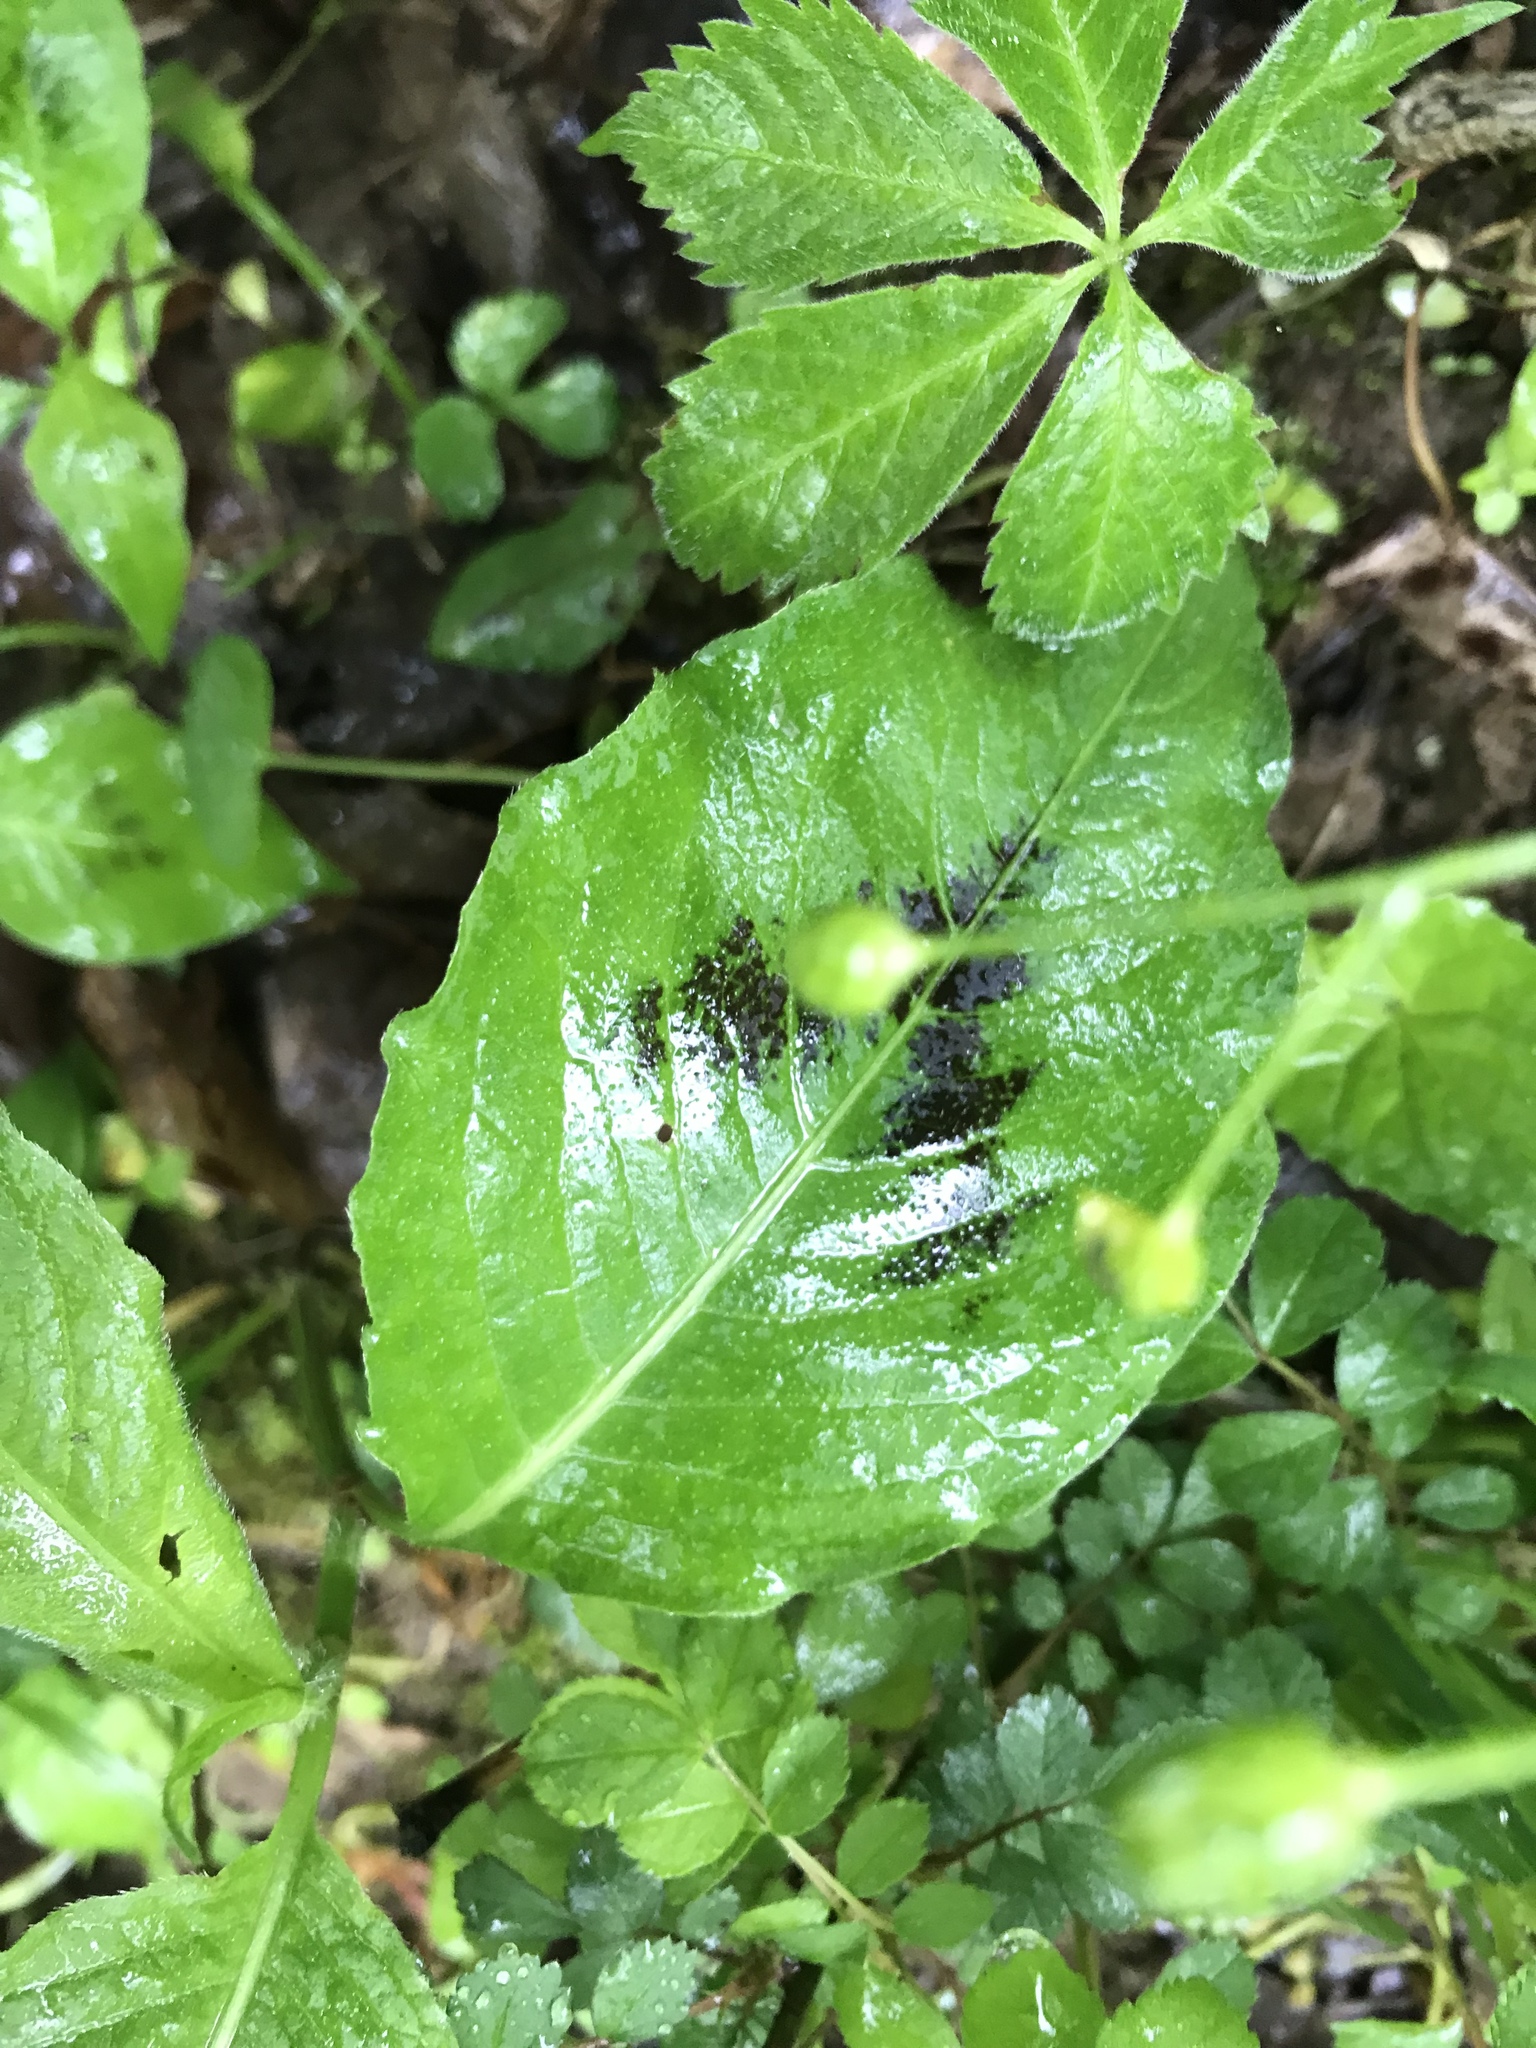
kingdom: Plantae
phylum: Tracheophyta
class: Magnoliopsida
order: Caryophyllales
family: Polygonaceae
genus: Persicaria
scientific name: Persicaria virginiana
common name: Jumpseed
